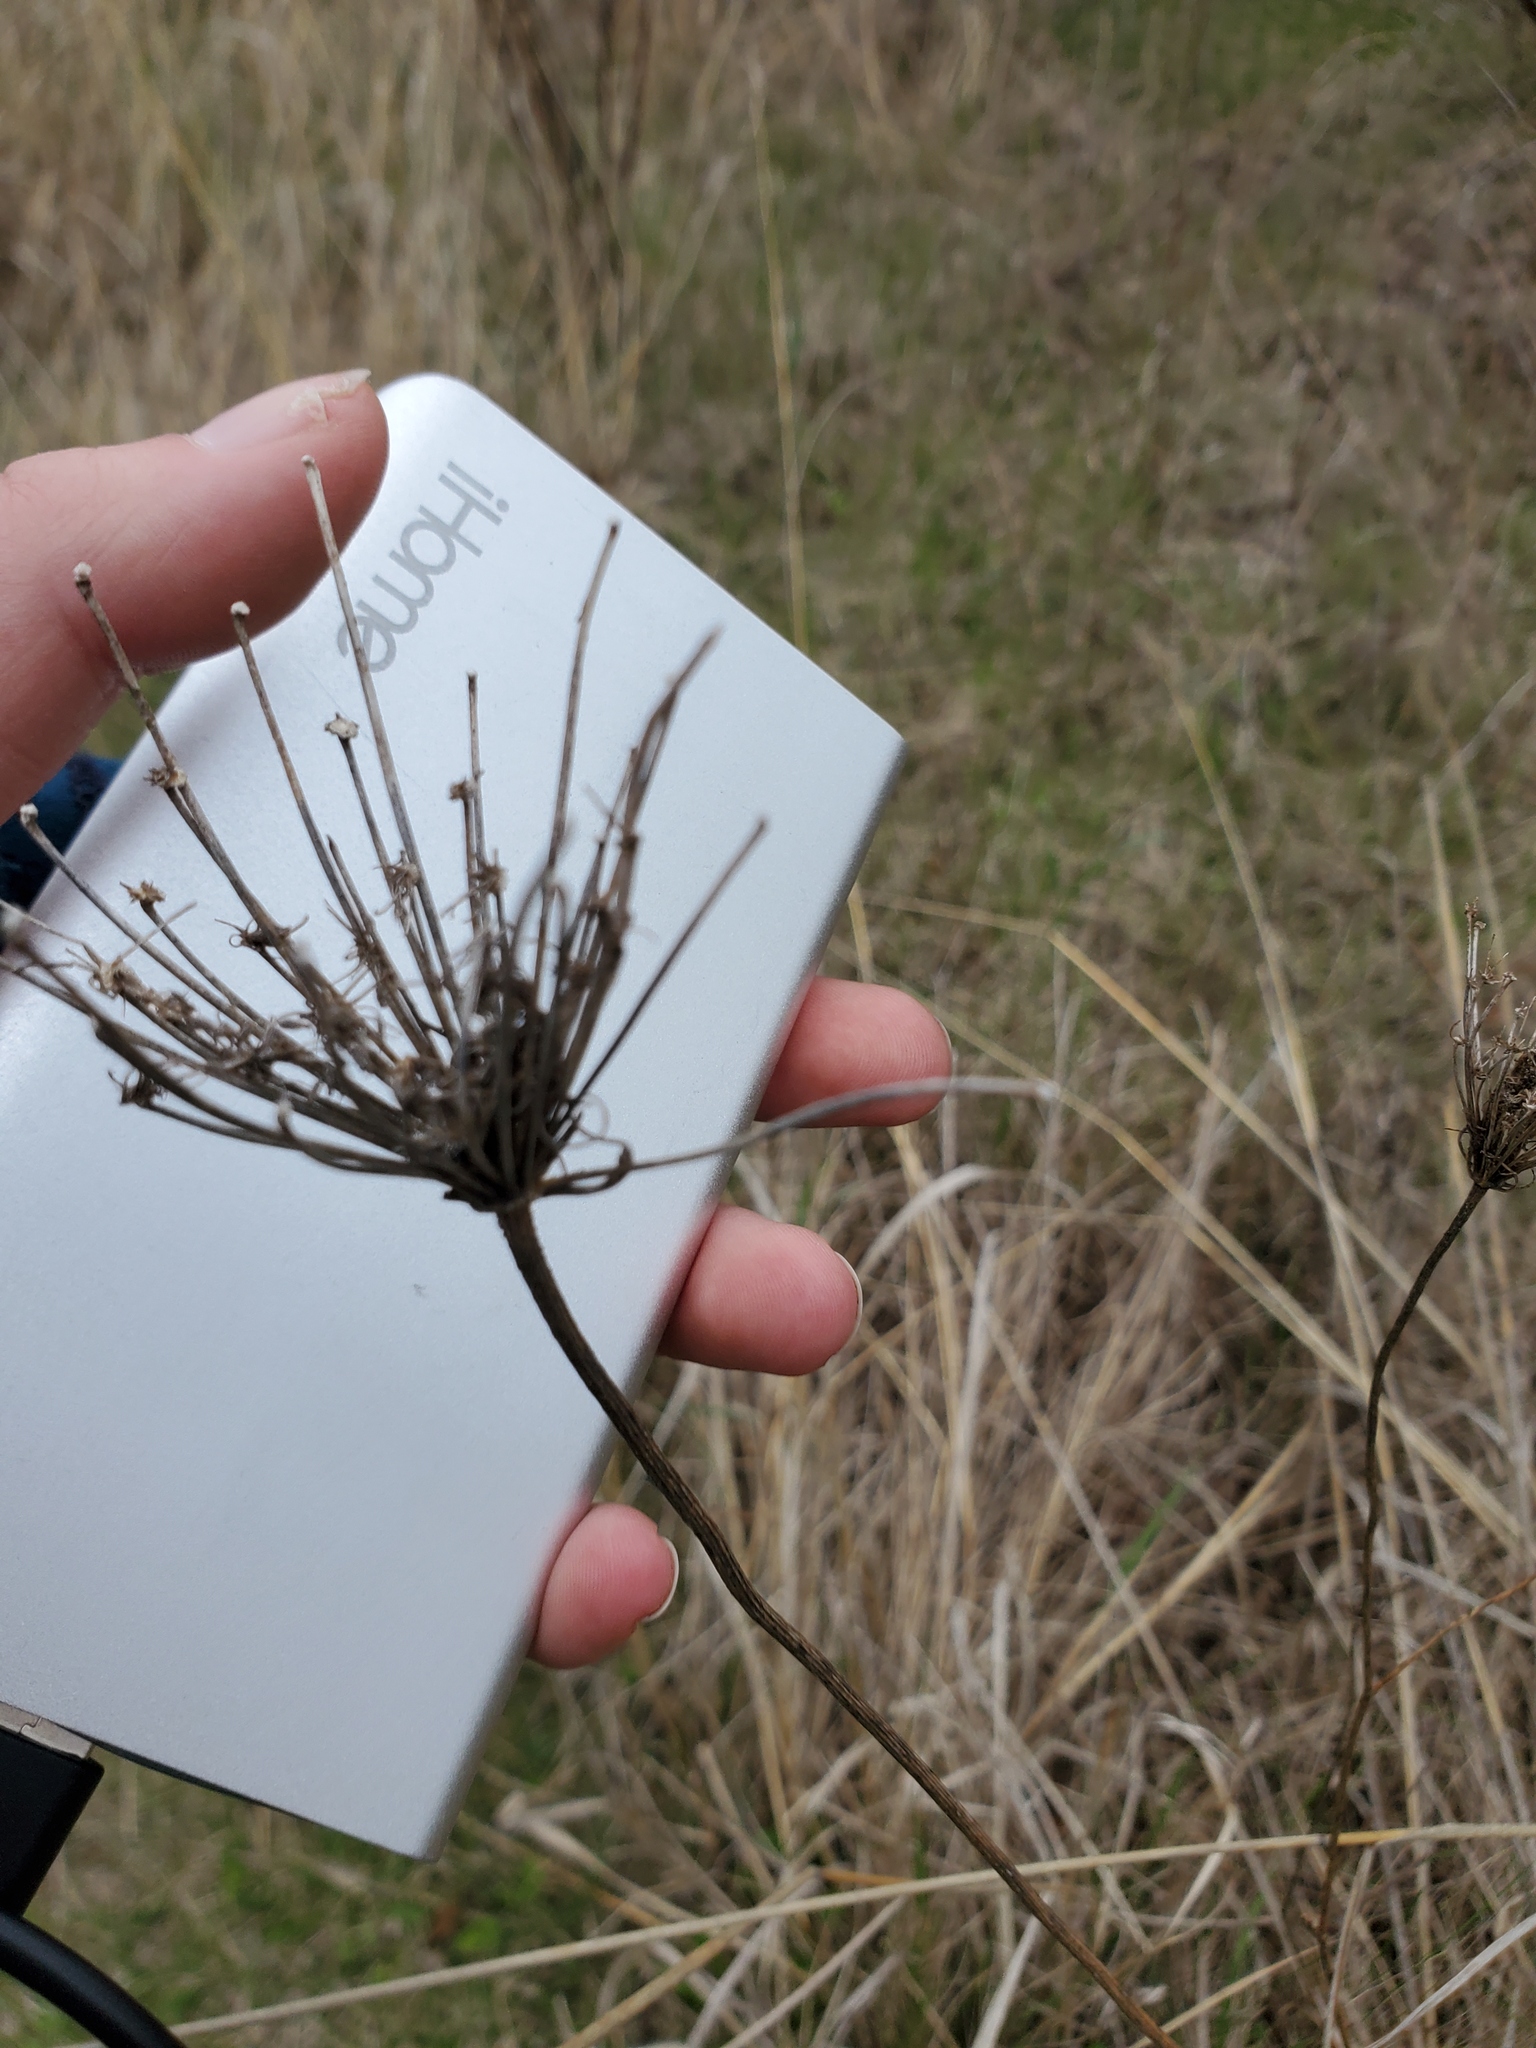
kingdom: Plantae
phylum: Tracheophyta
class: Magnoliopsida
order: Apiales
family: Apiaceae
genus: Daucus
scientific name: Daucus carota
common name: Wild carrot
